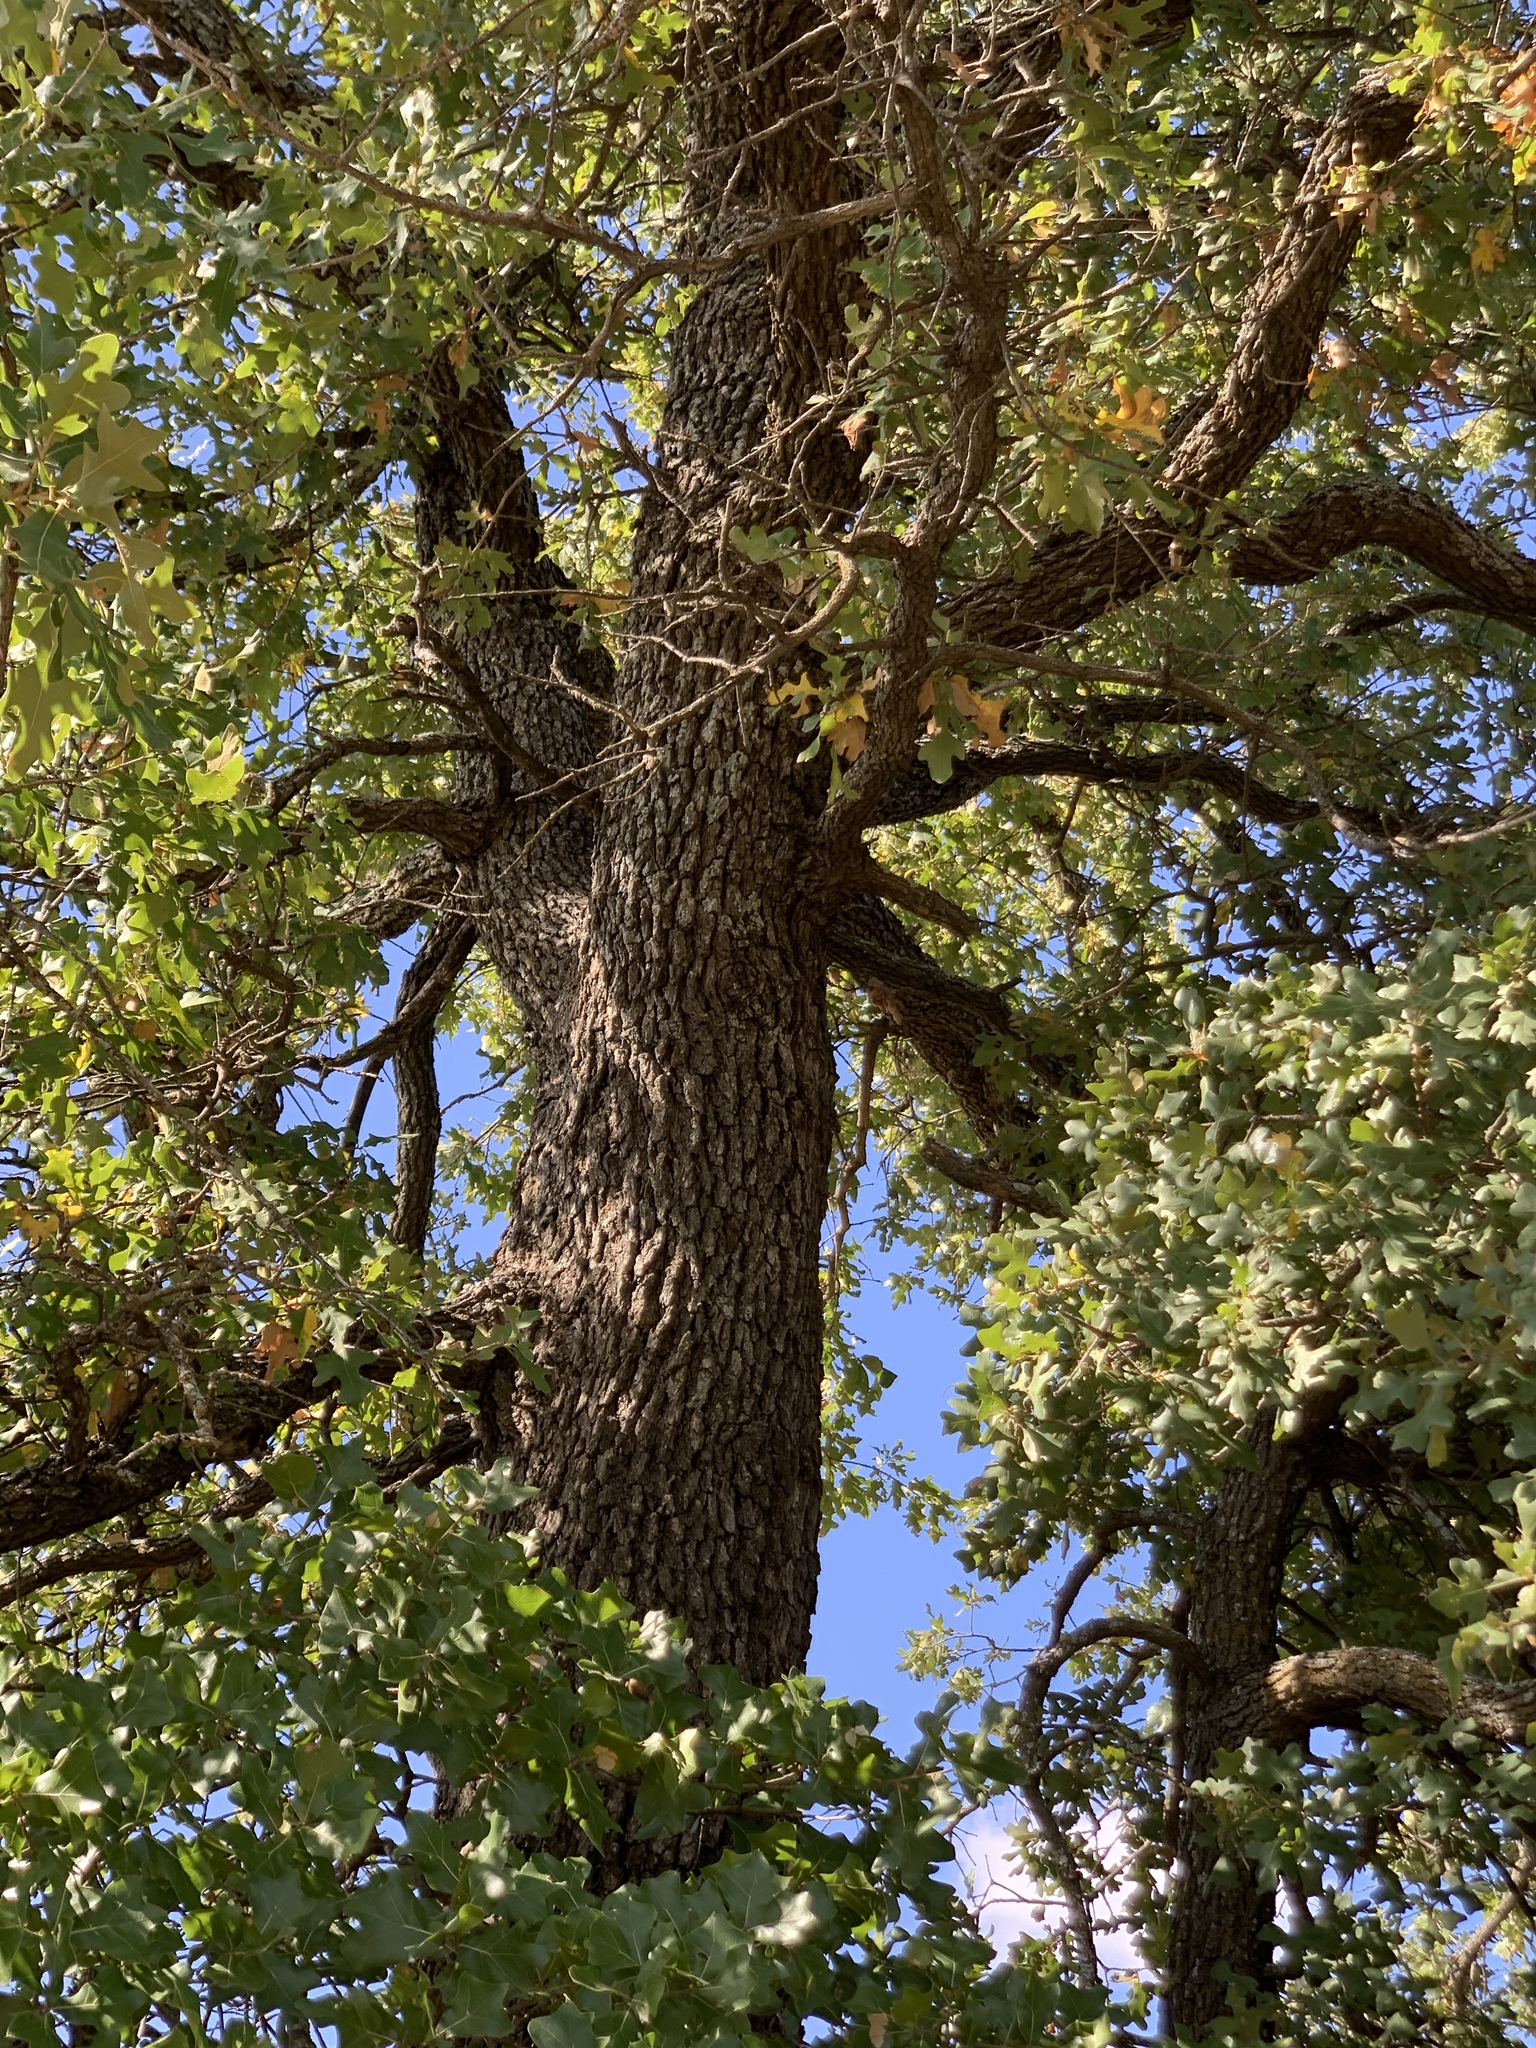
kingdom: Plantae
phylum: Tracheophyta
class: Magnoliopsida
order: Fagales
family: Fagaceae
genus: Quercus
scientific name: Quercus stellata
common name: Post oak
